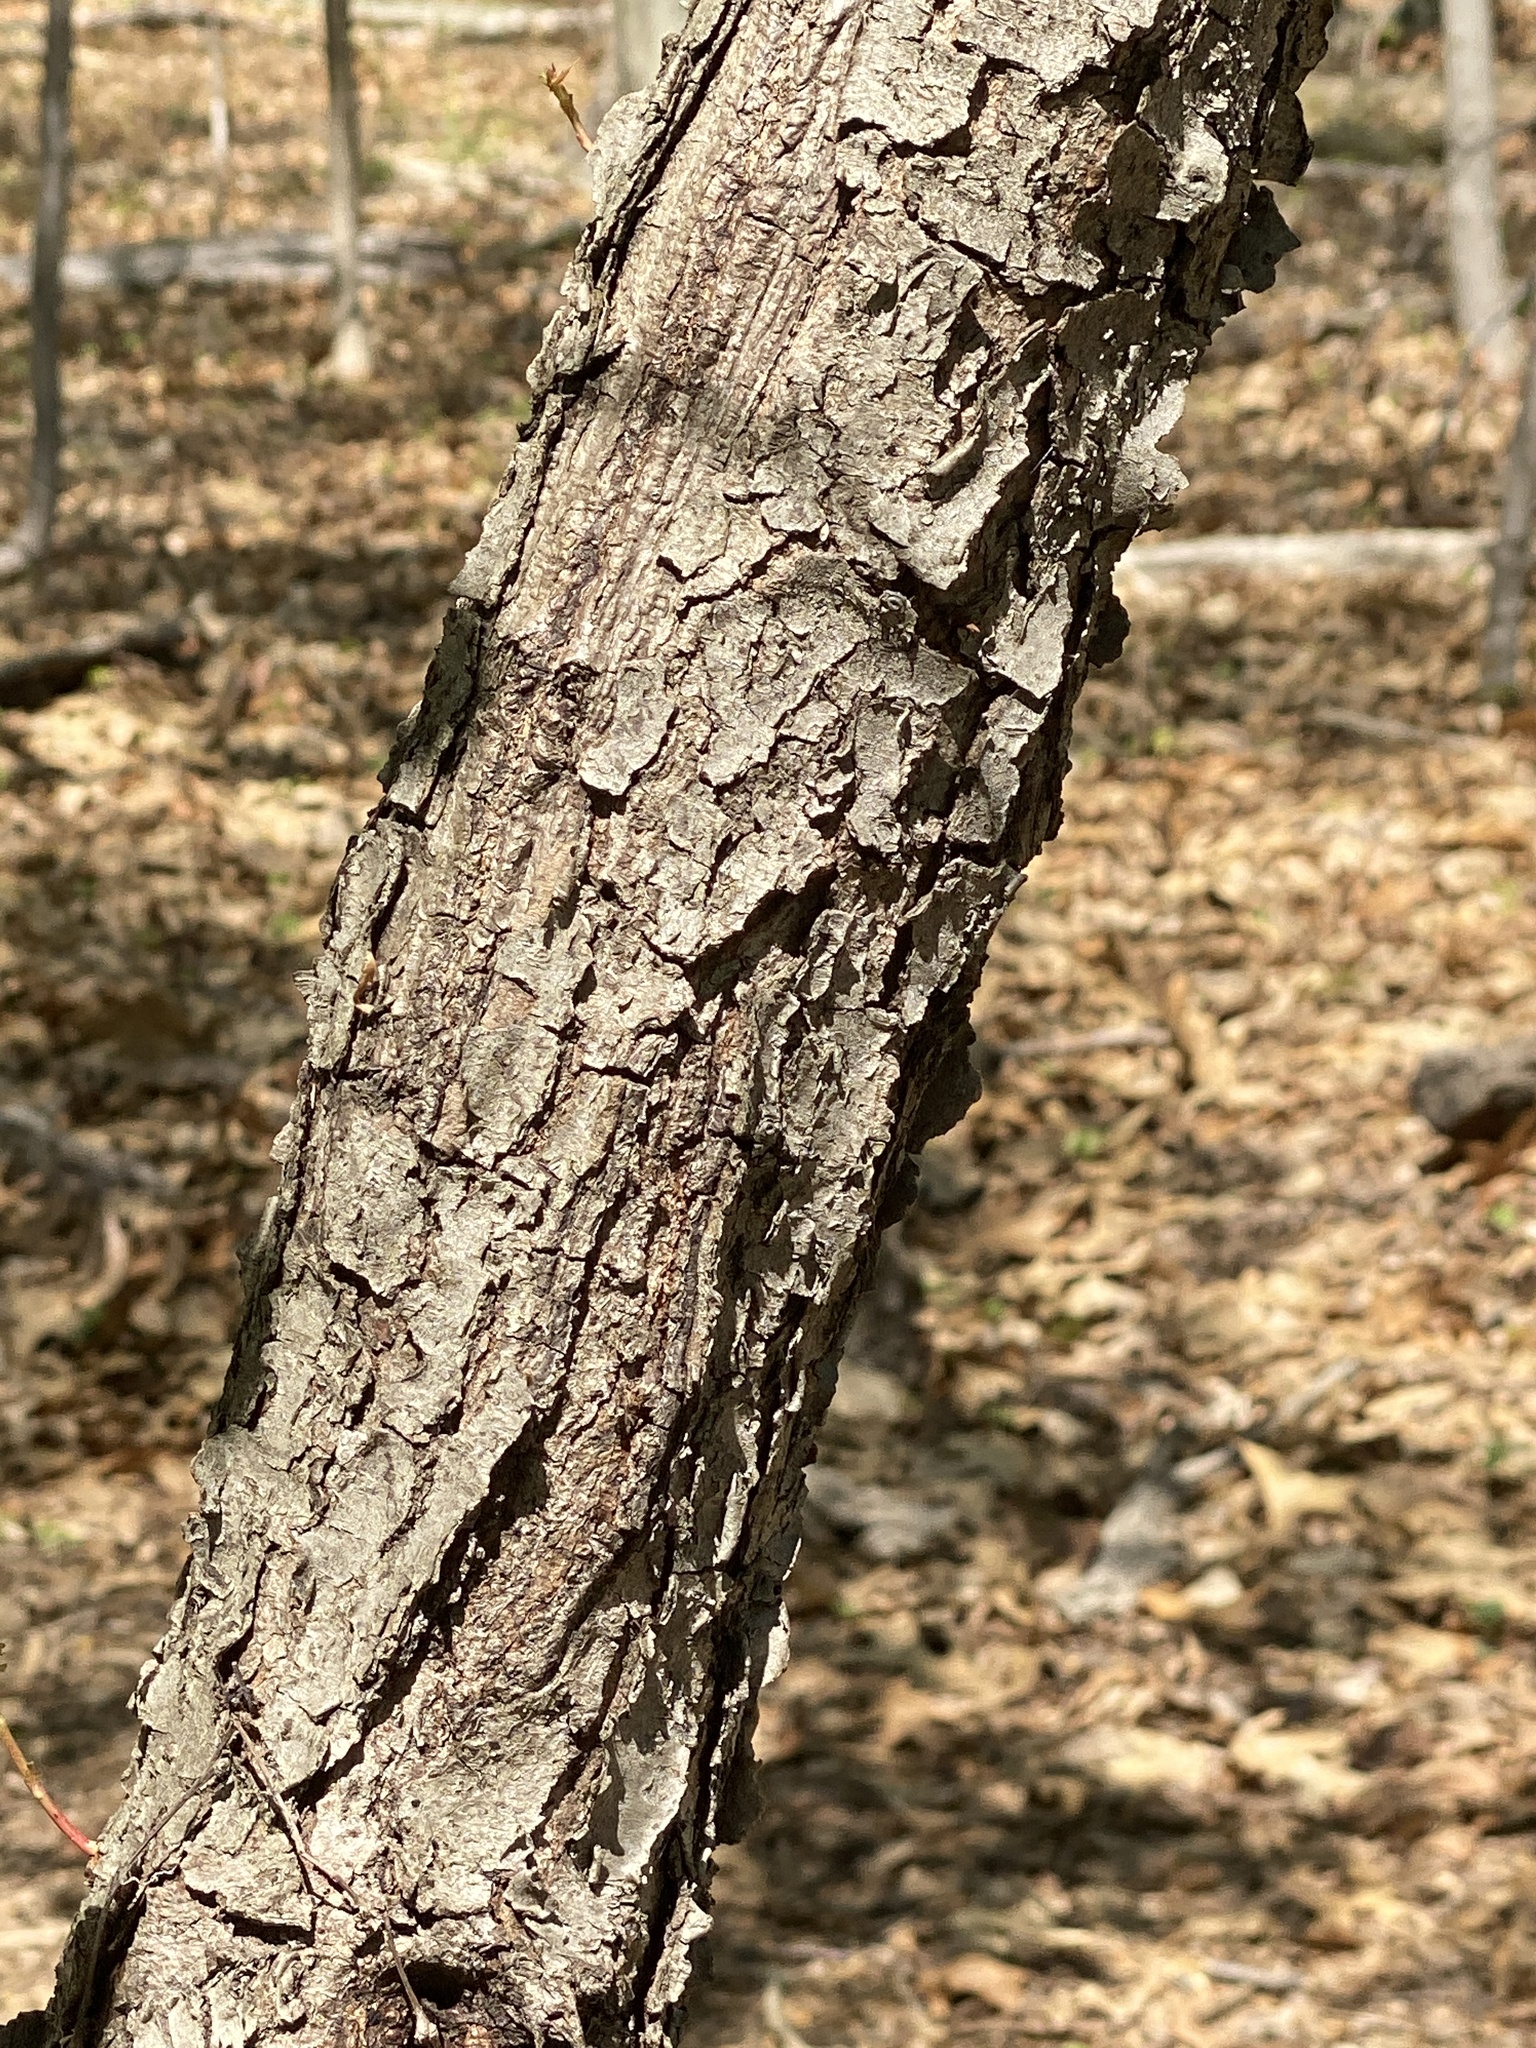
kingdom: Plantae
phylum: Tracheophyta
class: Magnoliopsida
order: Rosales
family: Rosaceae
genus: Prunus
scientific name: Prunus serotina
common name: Black cherry
